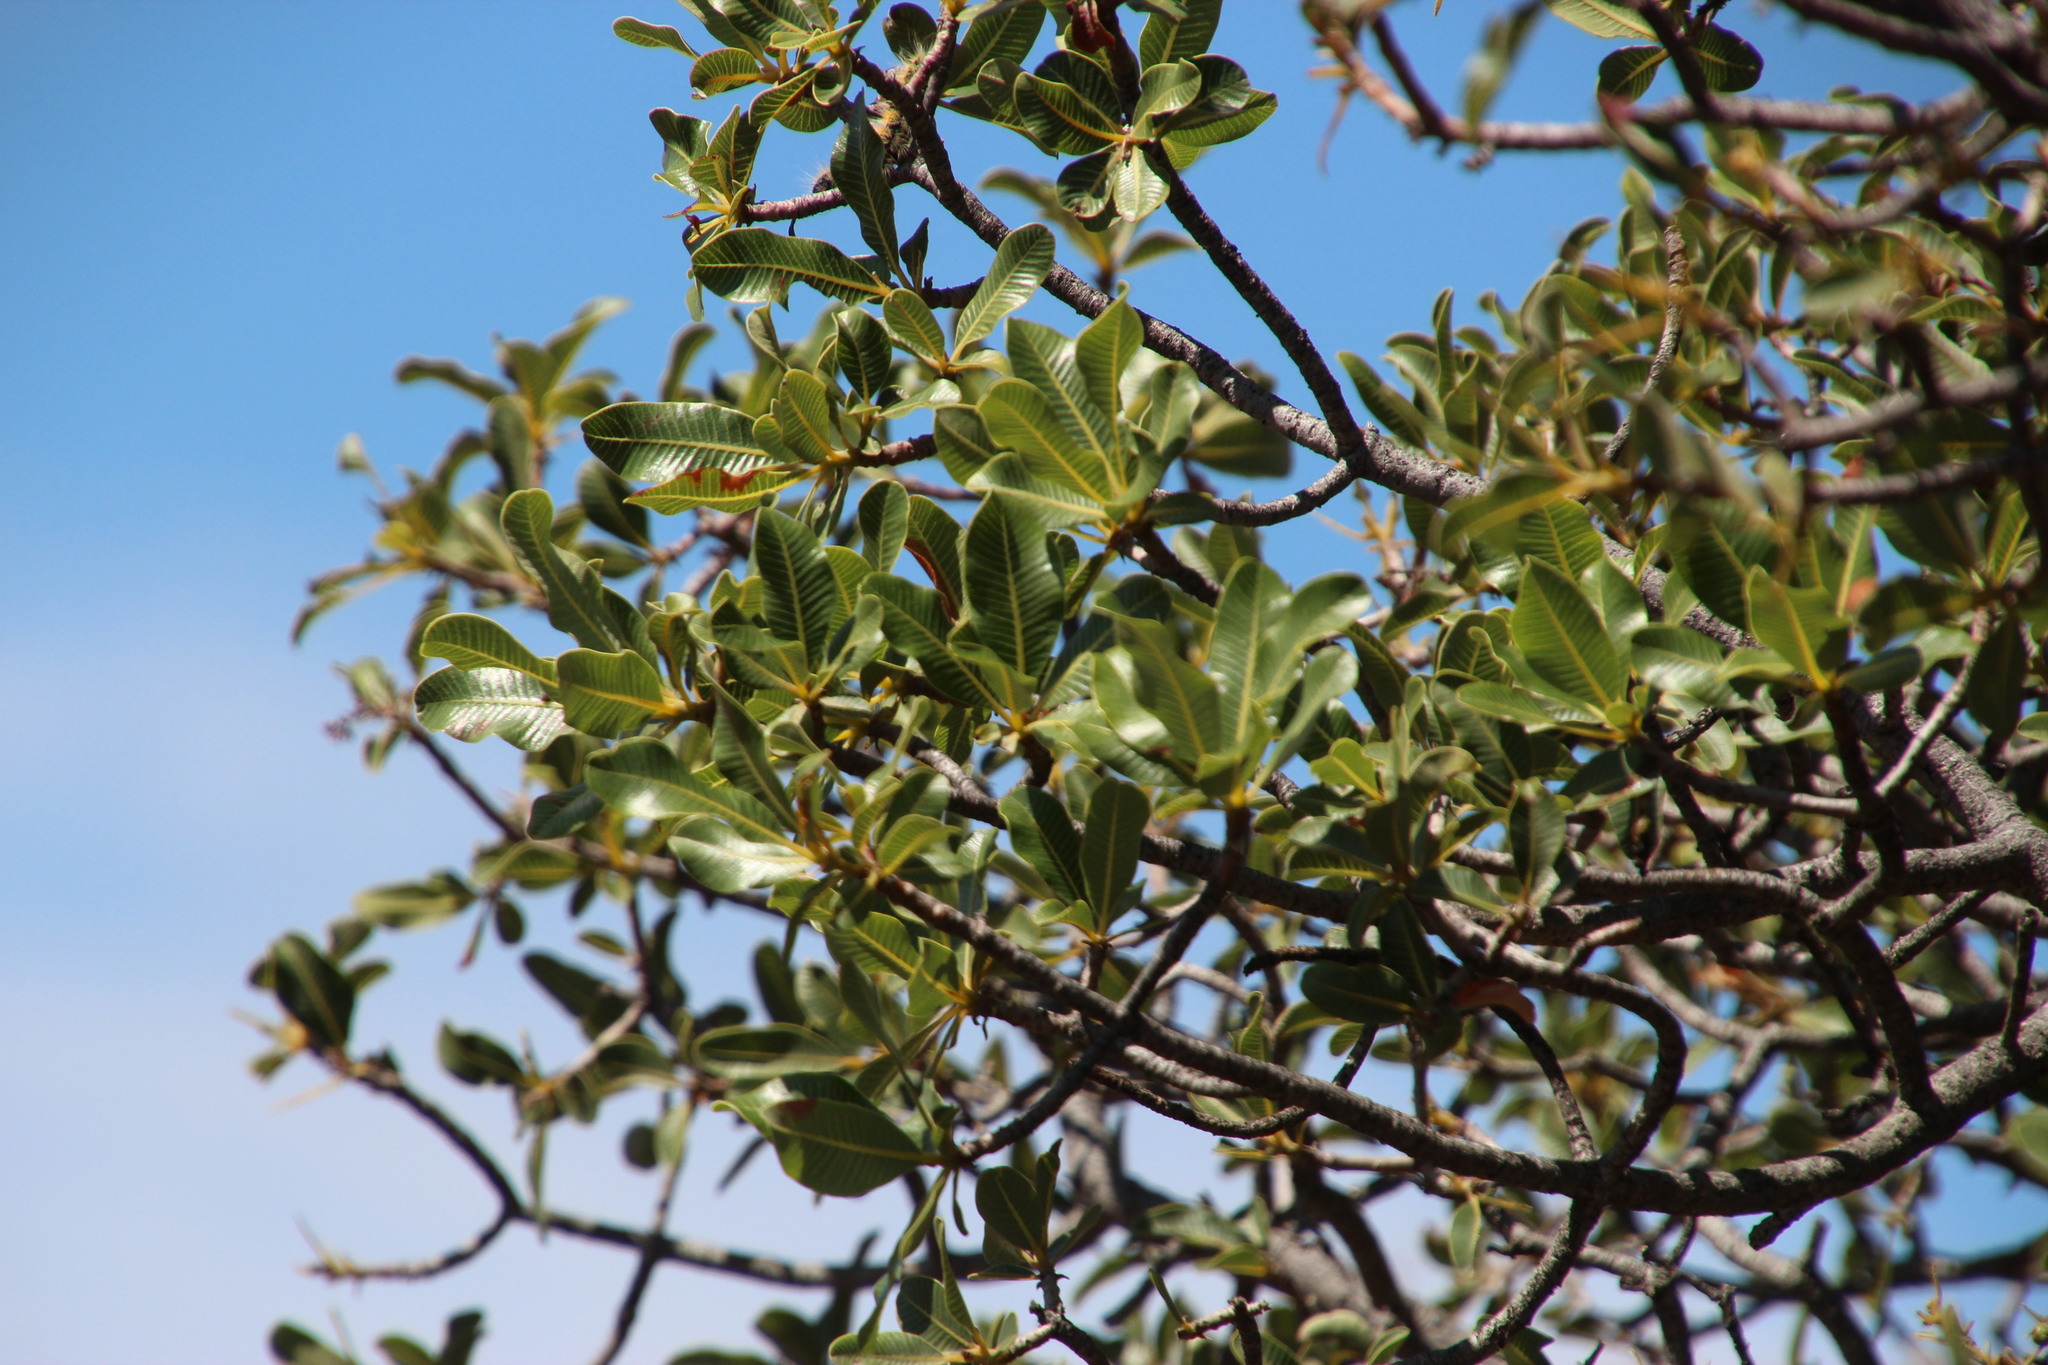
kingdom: Plantae
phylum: Tracheophyta
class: Magnoliopsida
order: Sapindales
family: Anacardiaceae
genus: Ozoroa
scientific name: Ozoroa dispar
